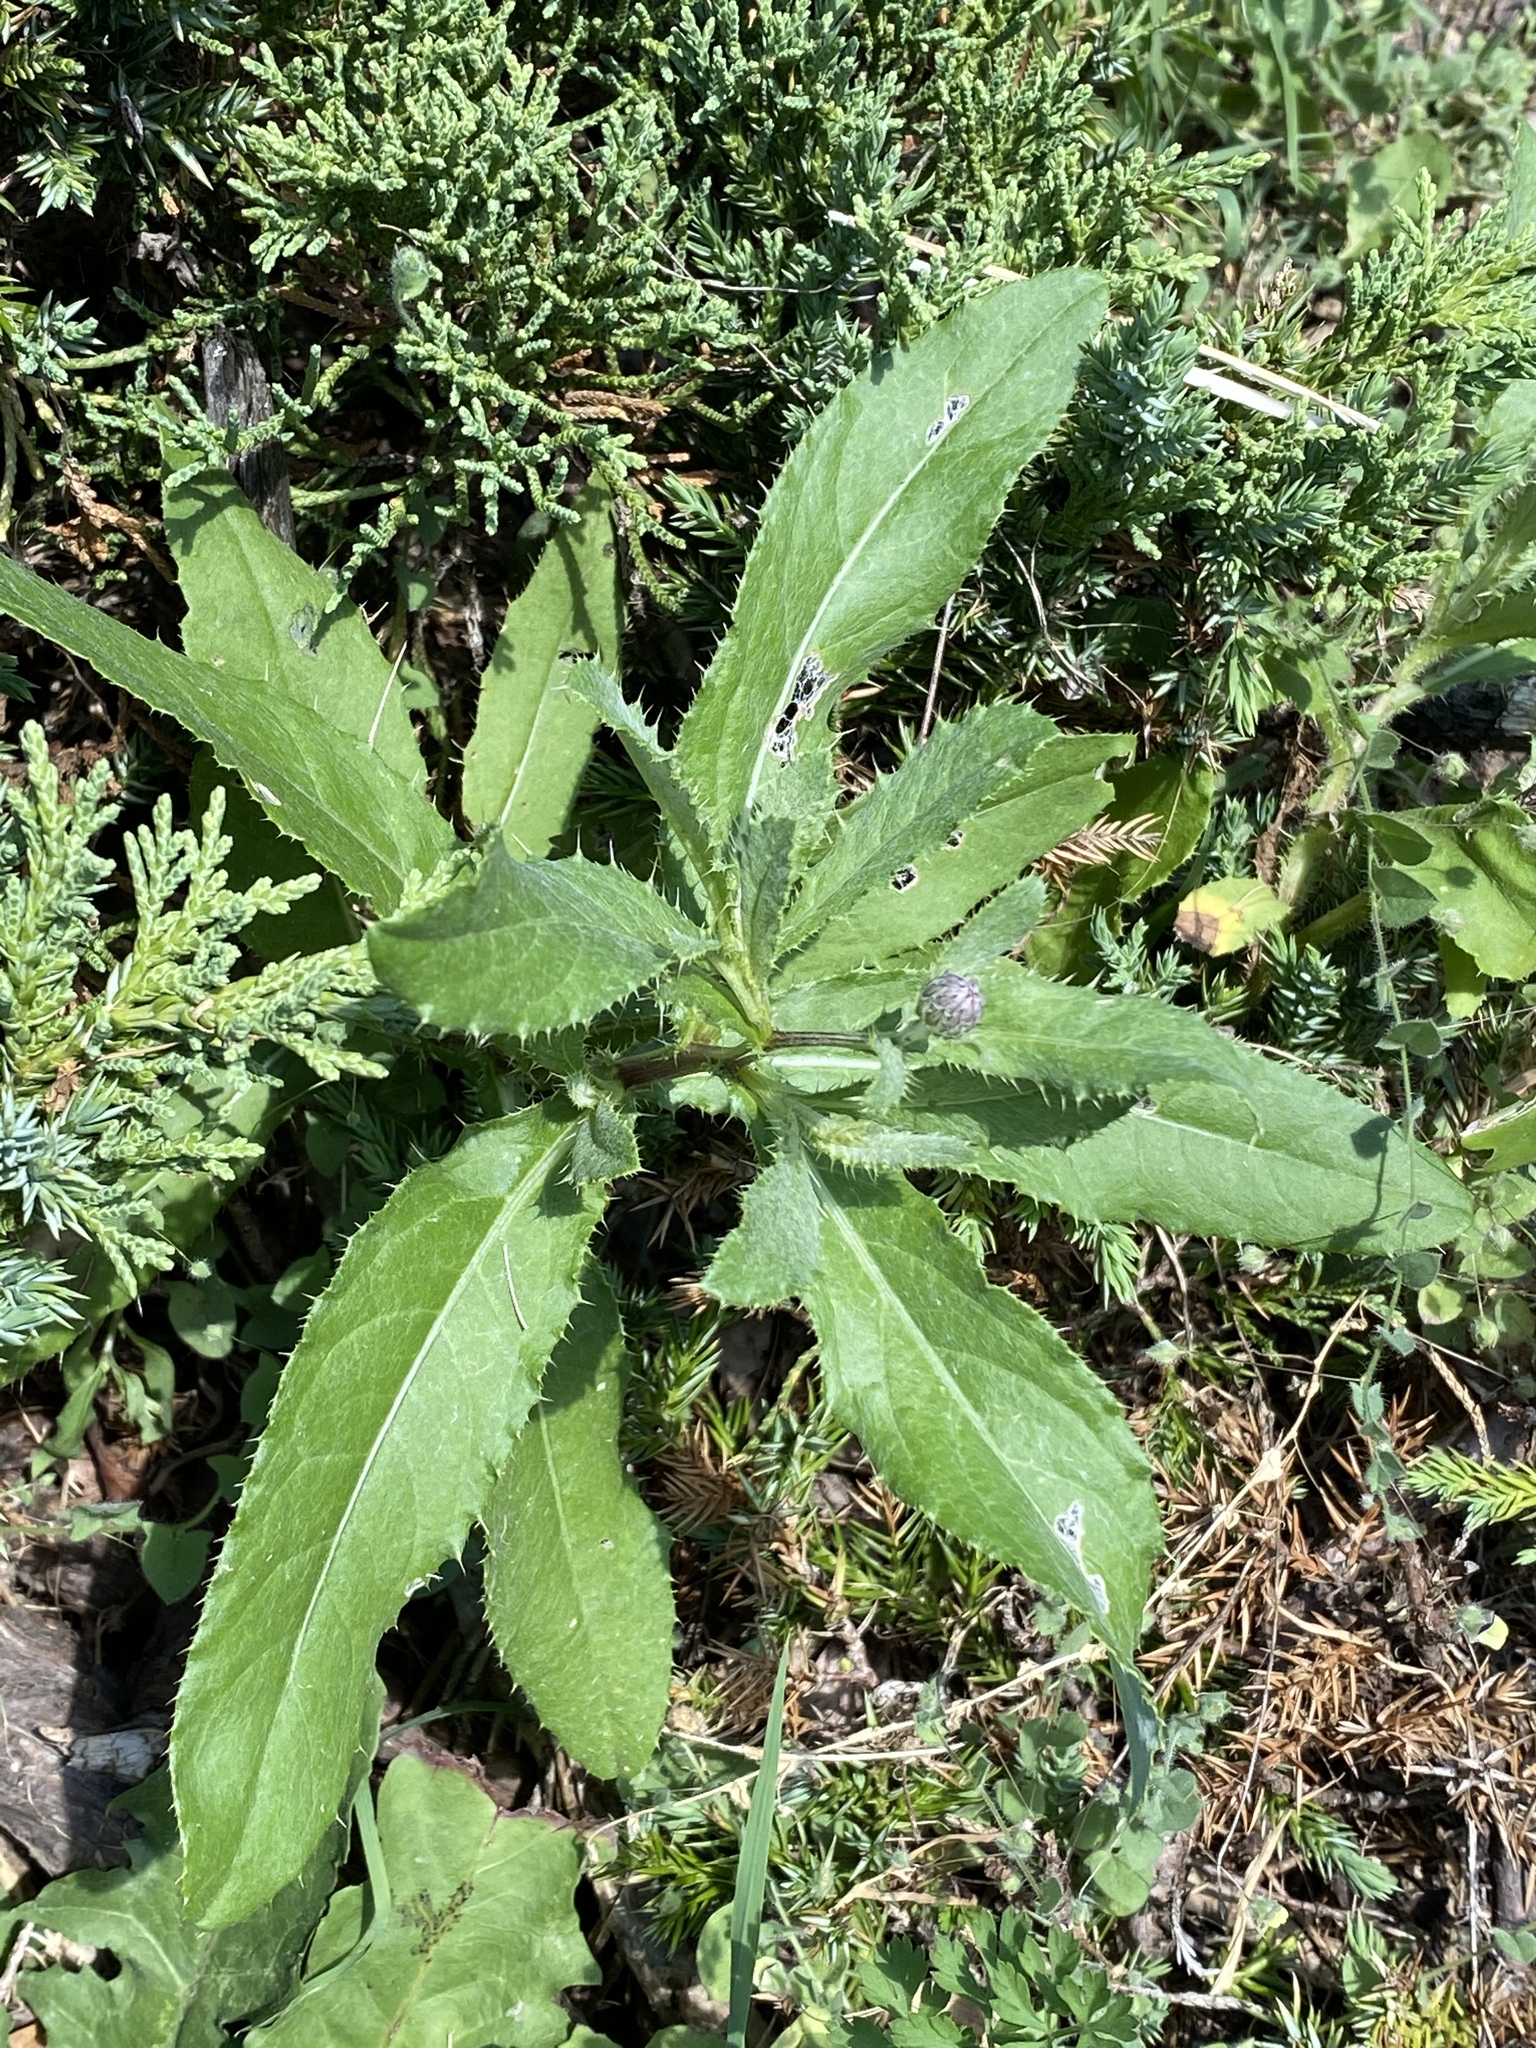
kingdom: Plantae
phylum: Tracheophyta
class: Magnoliopsida
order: Asterales
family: Asteraceae
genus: Cirsium
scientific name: Cirsium arvense
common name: Creeping thistle
